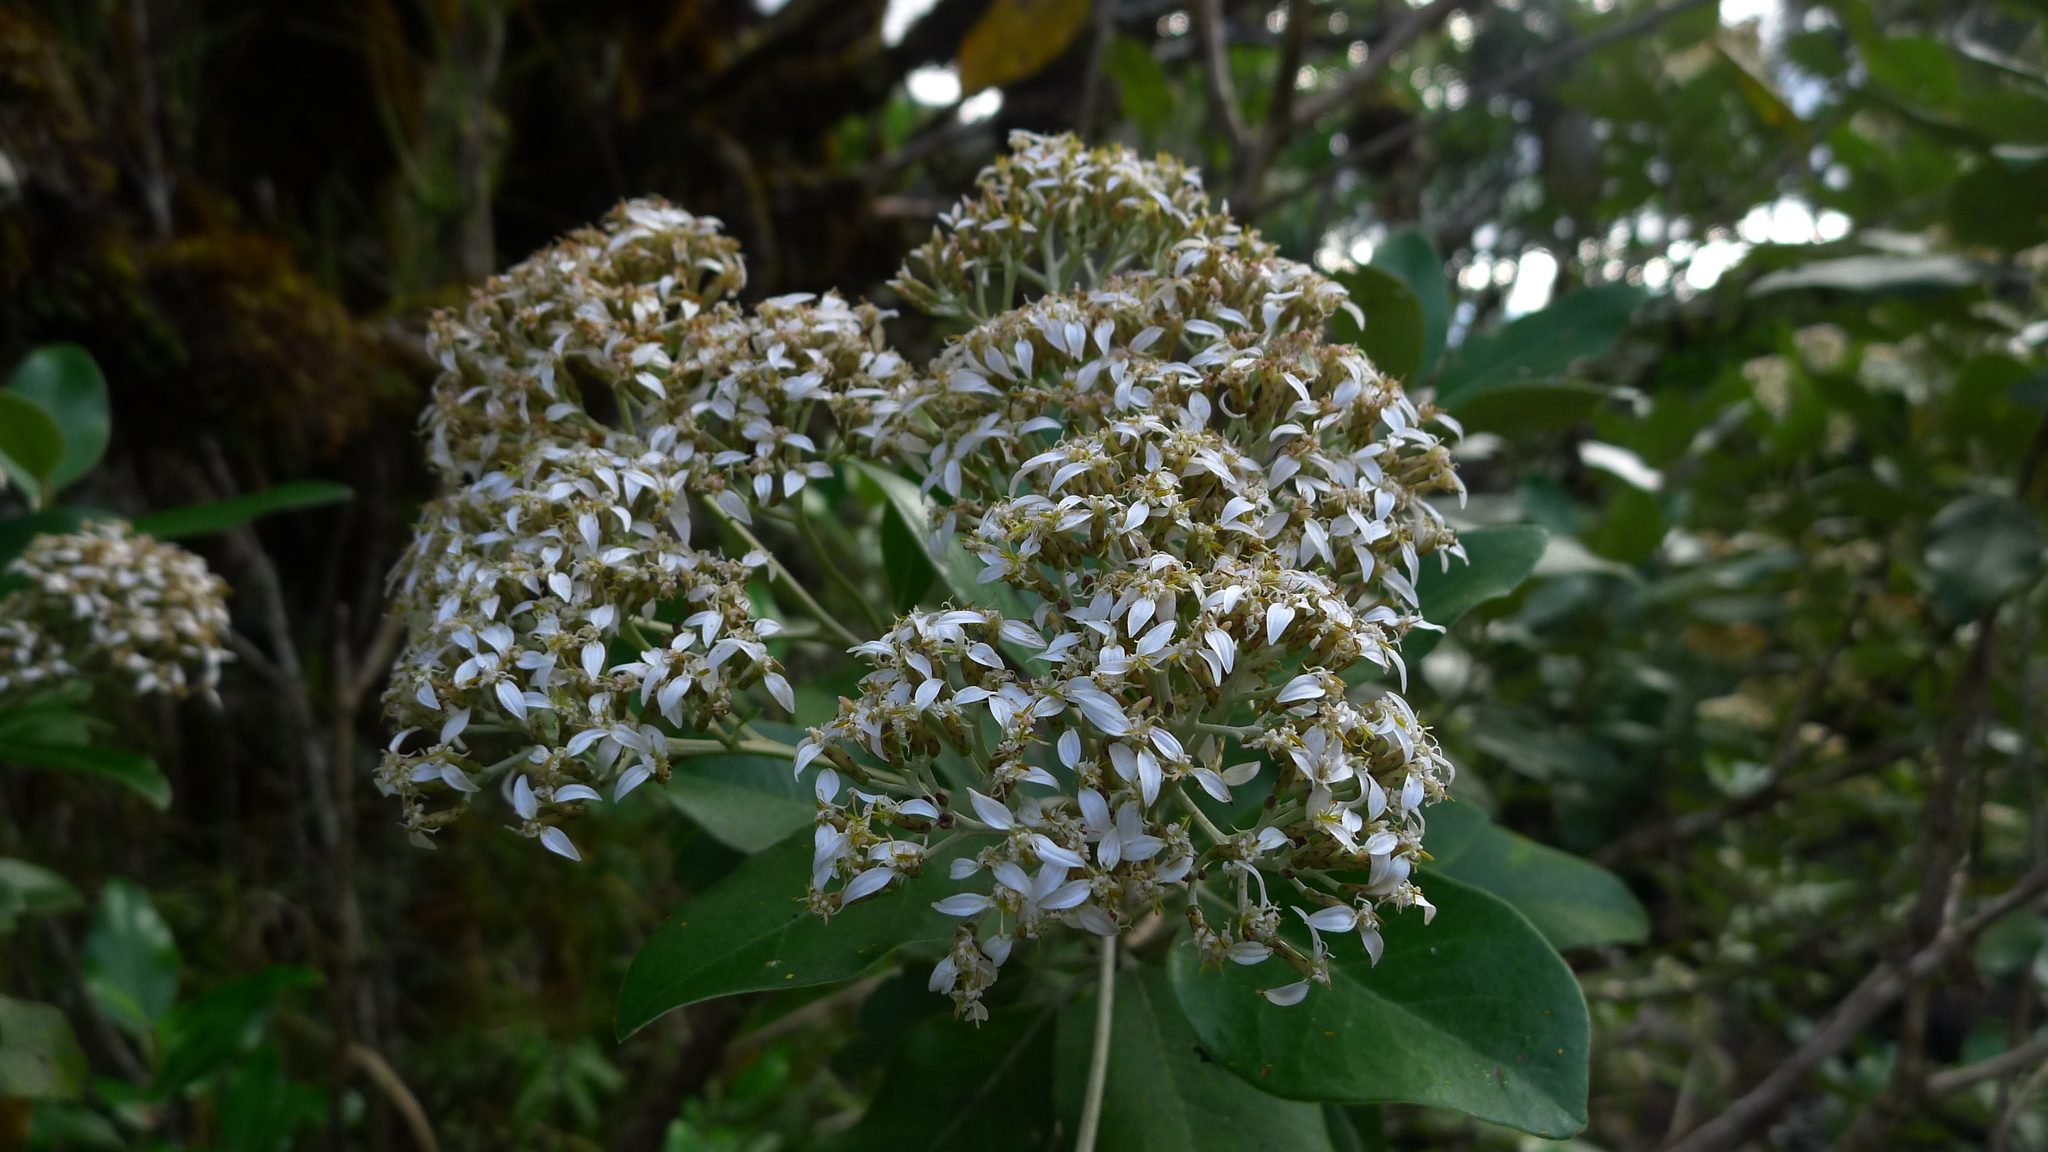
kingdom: Plantae
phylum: Tracheophyta
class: Magnoliopsida
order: Asterales
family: Asteraceae
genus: Olearia
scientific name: Olearia avicenniifolia
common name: Mangrove-leaf daisybush
